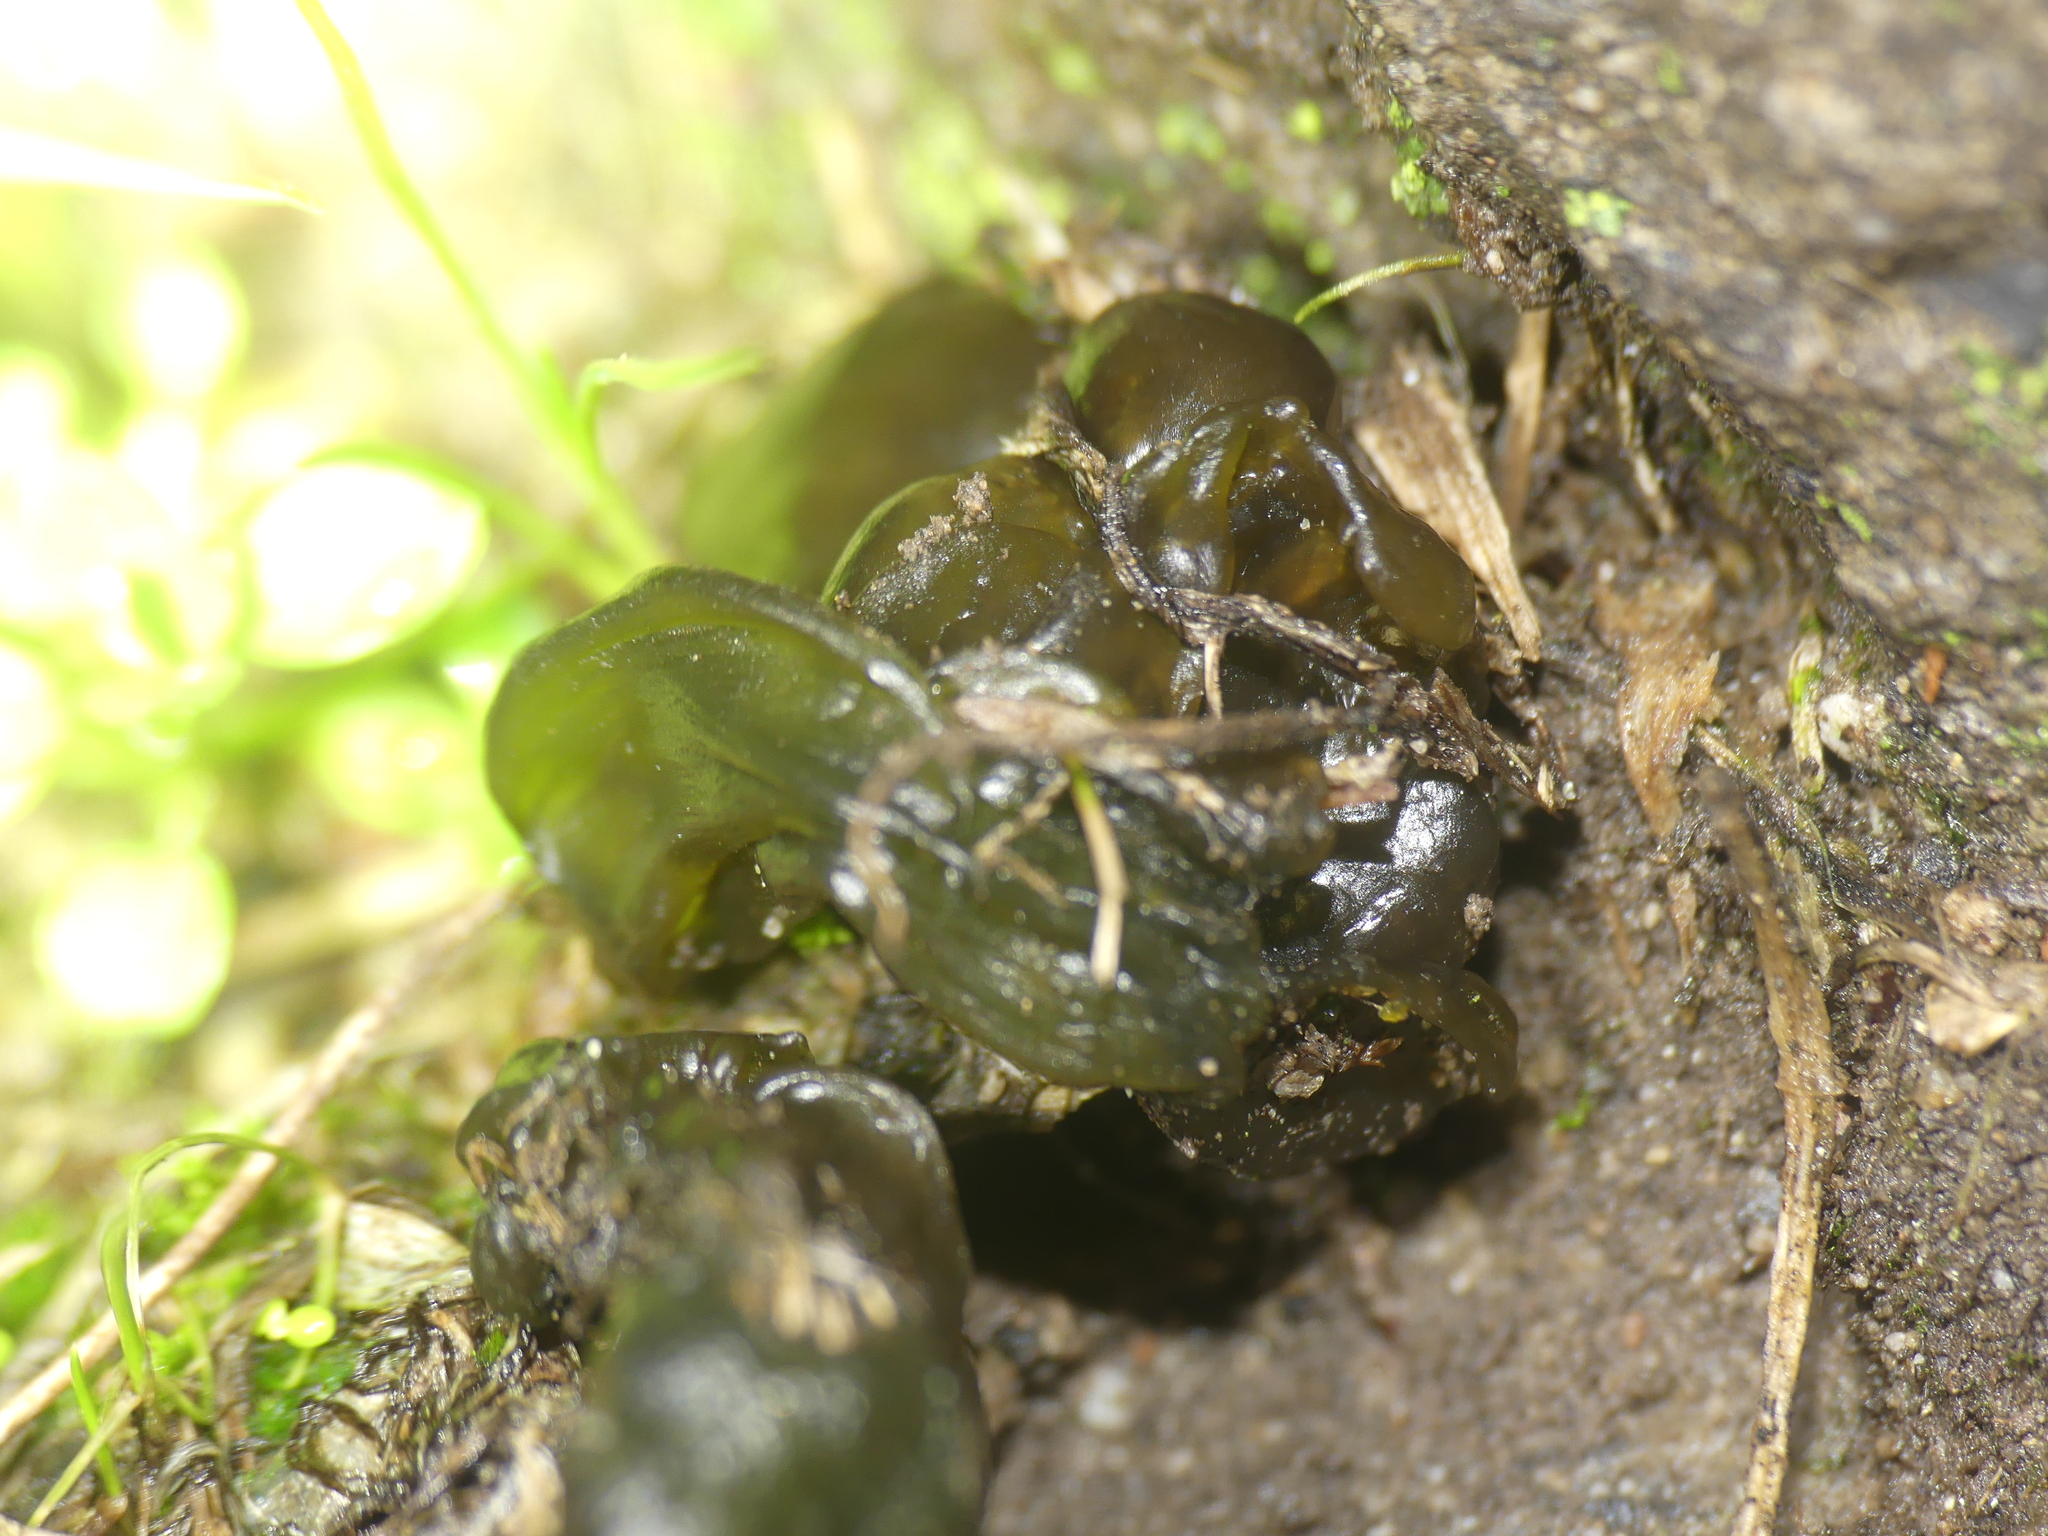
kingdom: Bacteria
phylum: Cyanobacteria
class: Cyanobacteriia
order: Cyanobacteriales
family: Nostocaceae
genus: Nostoc
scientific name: Nostoc commune
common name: Star jelly
